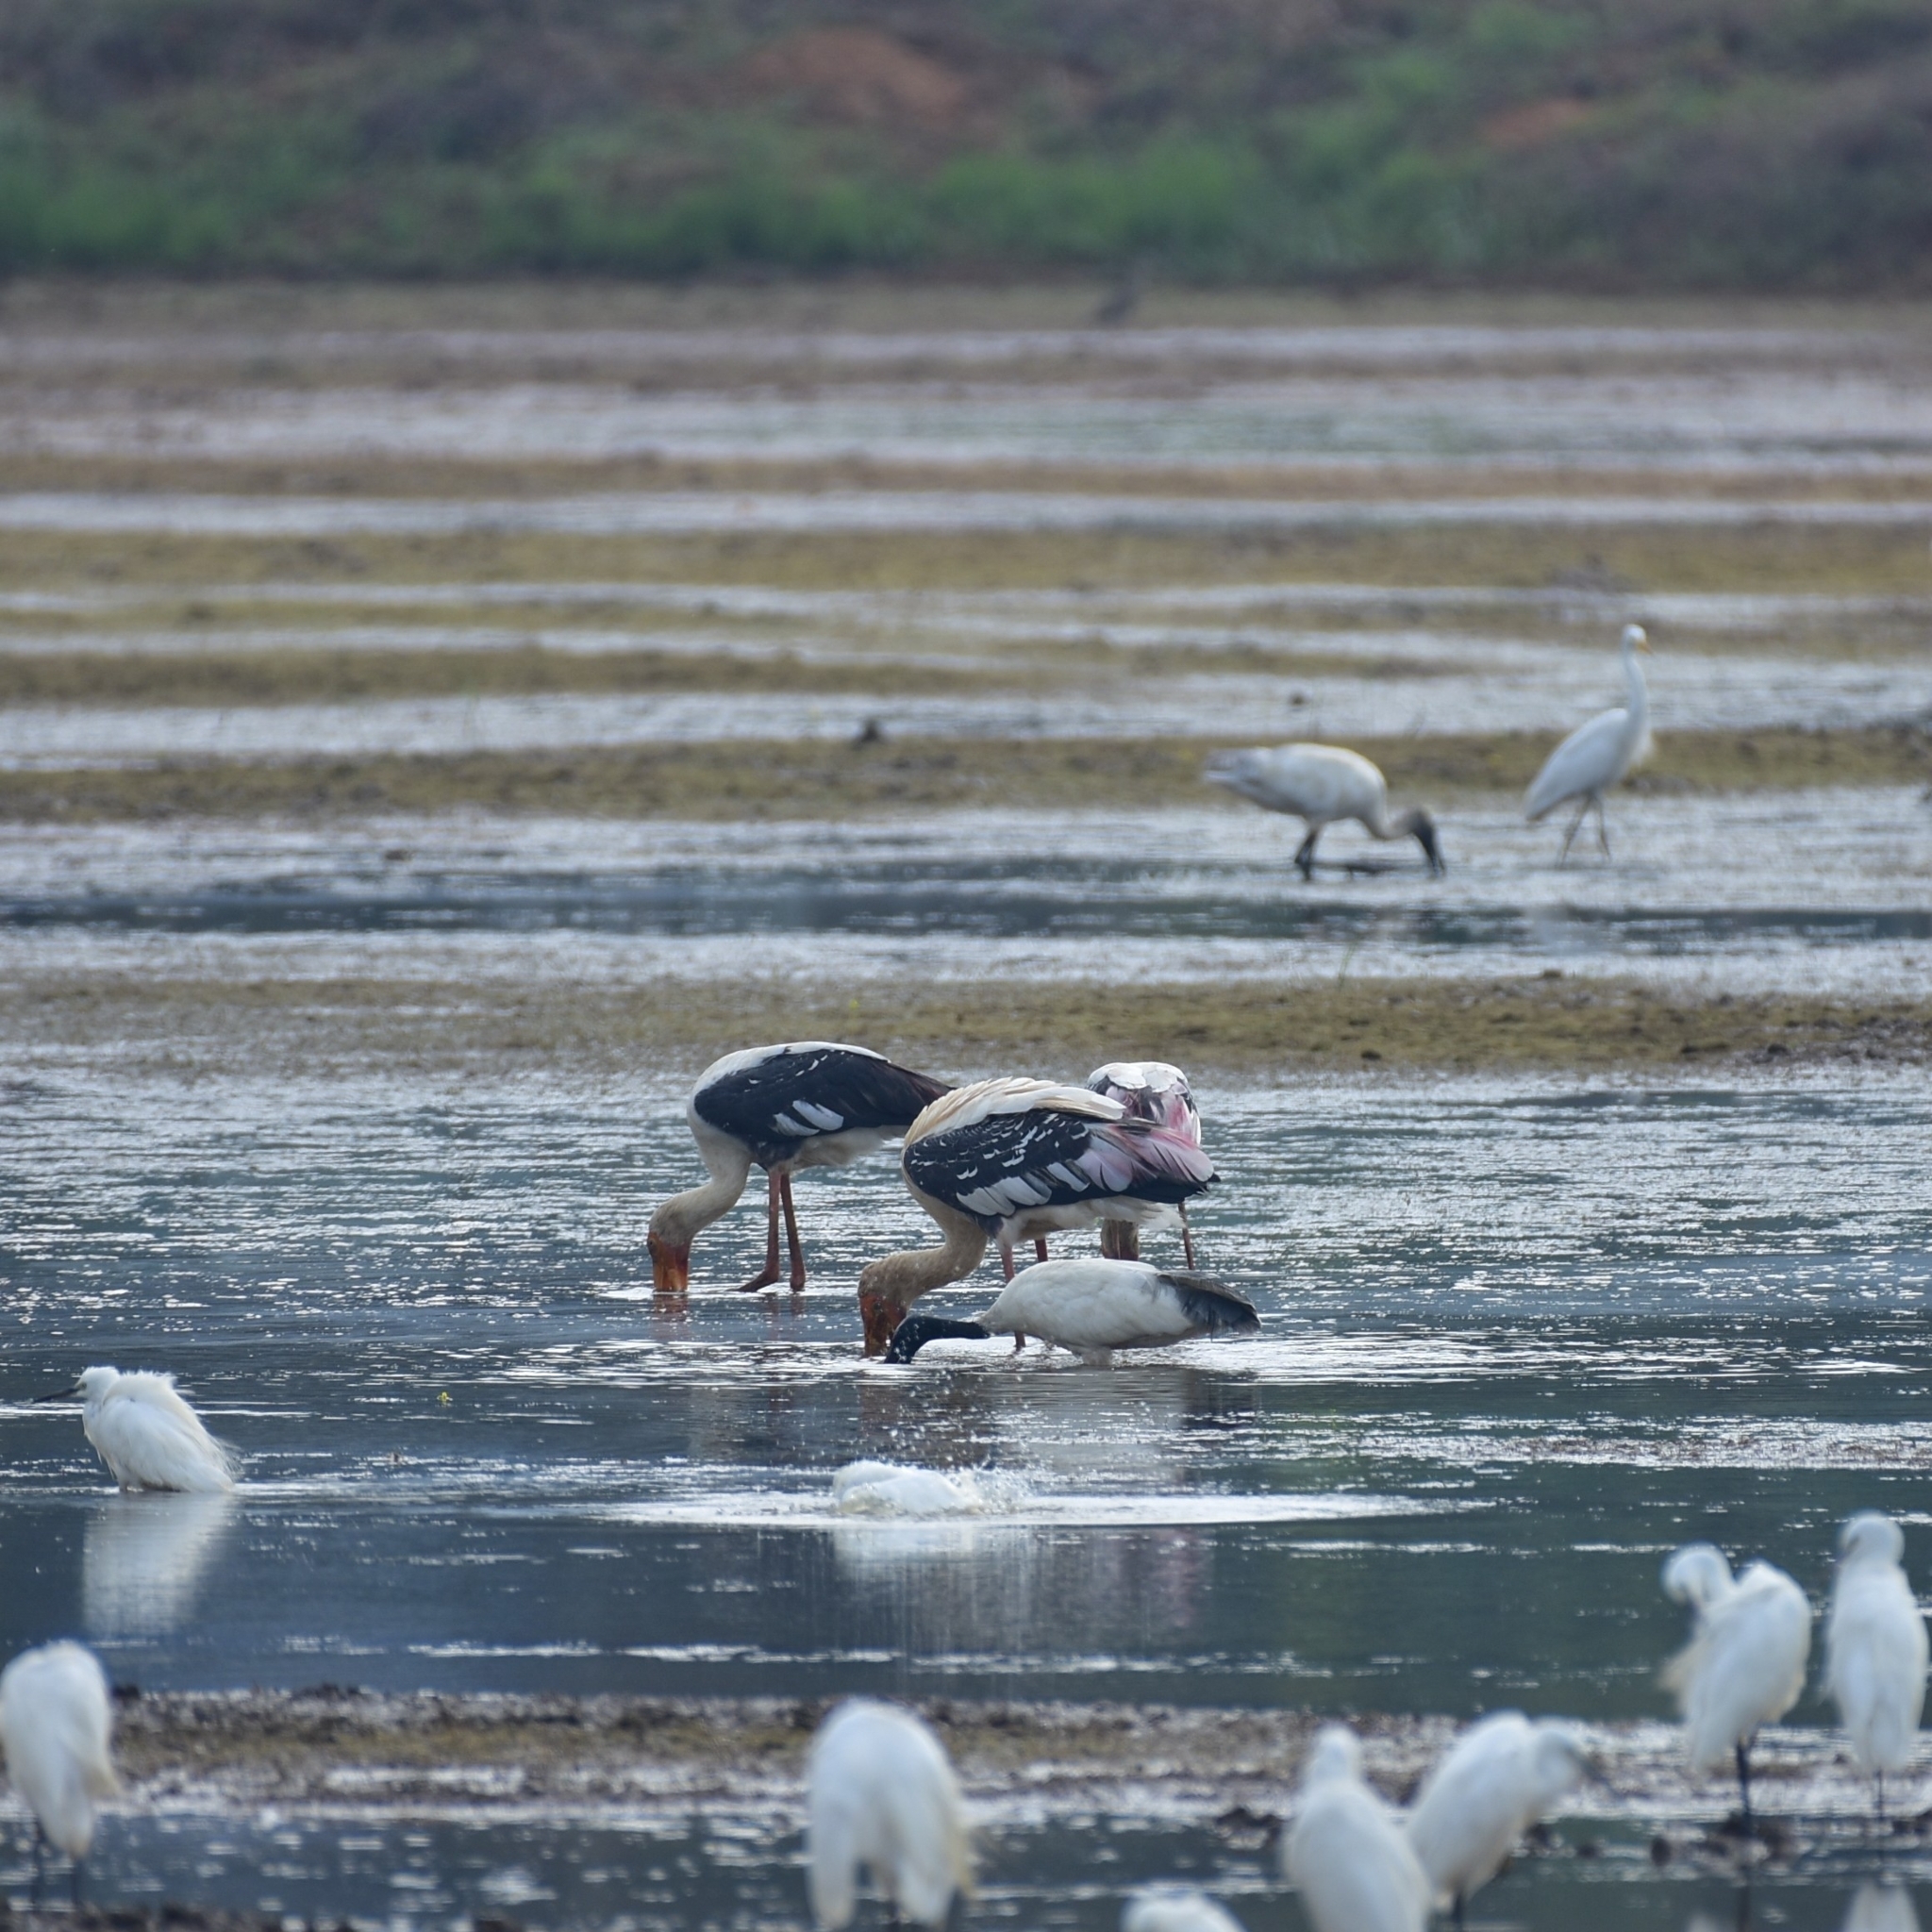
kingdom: Animalia
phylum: Chordata
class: Aves
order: Ciconiiformes
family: Ciconiidae
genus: Mycteria
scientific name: Mycteria leucocephala
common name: Painted stork
